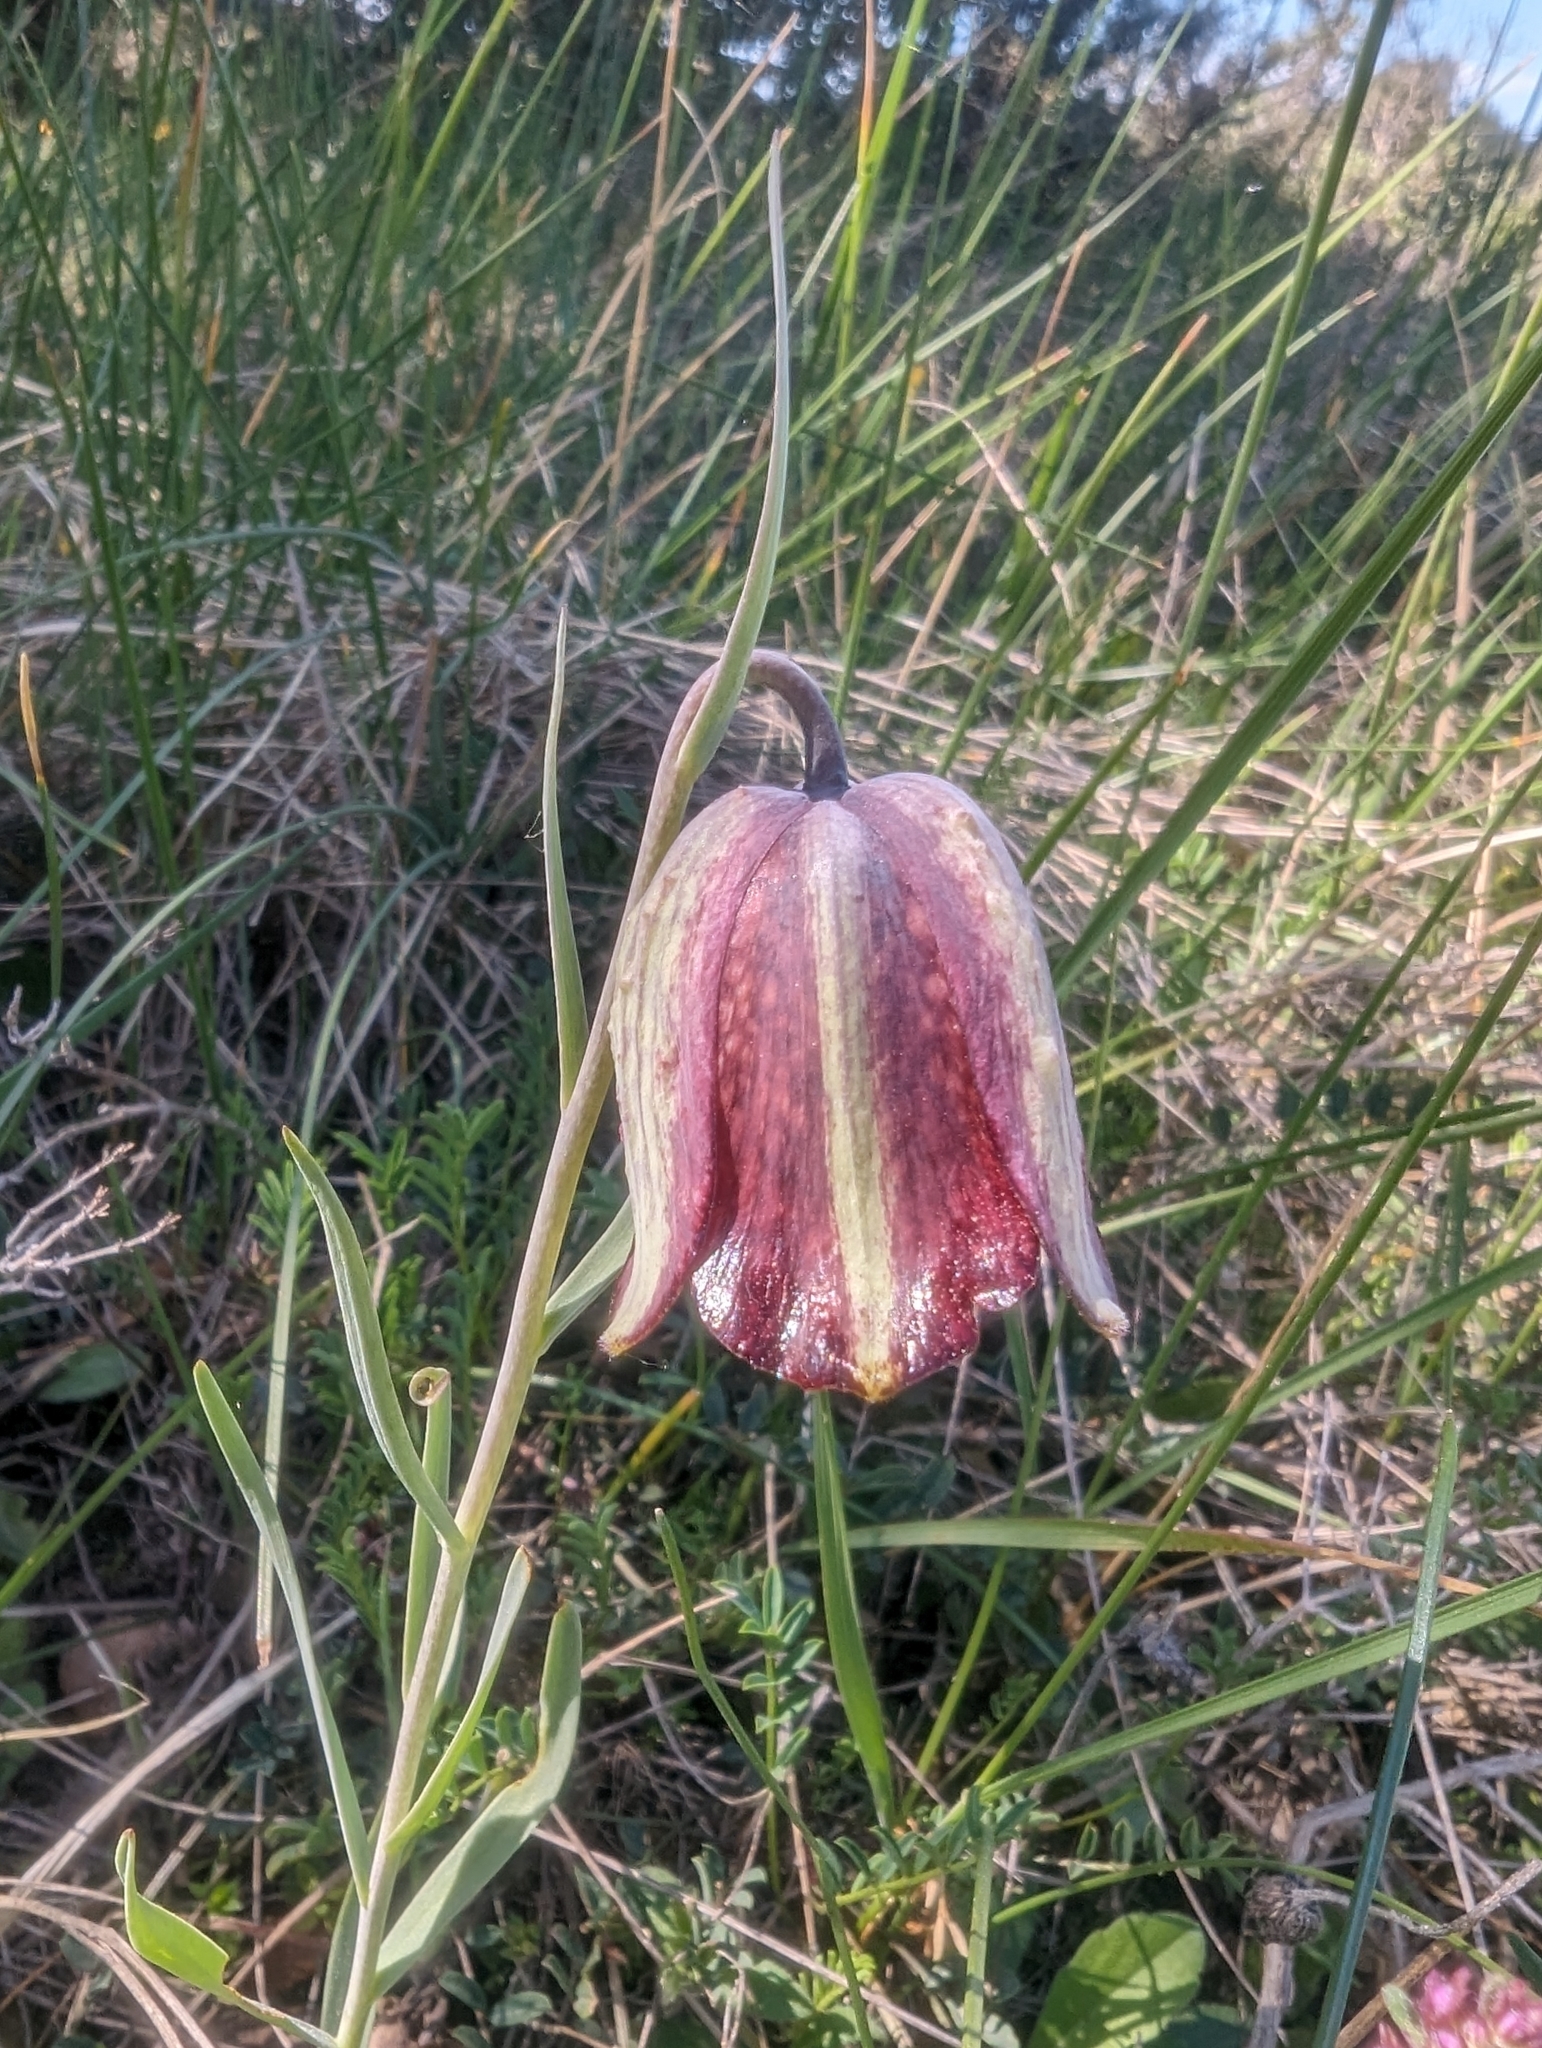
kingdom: Plantae
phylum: Tracheophyta
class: Liliopsida
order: Liliales
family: Liliaceae
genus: Fritillaria
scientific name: Fritillaria lusitanica
